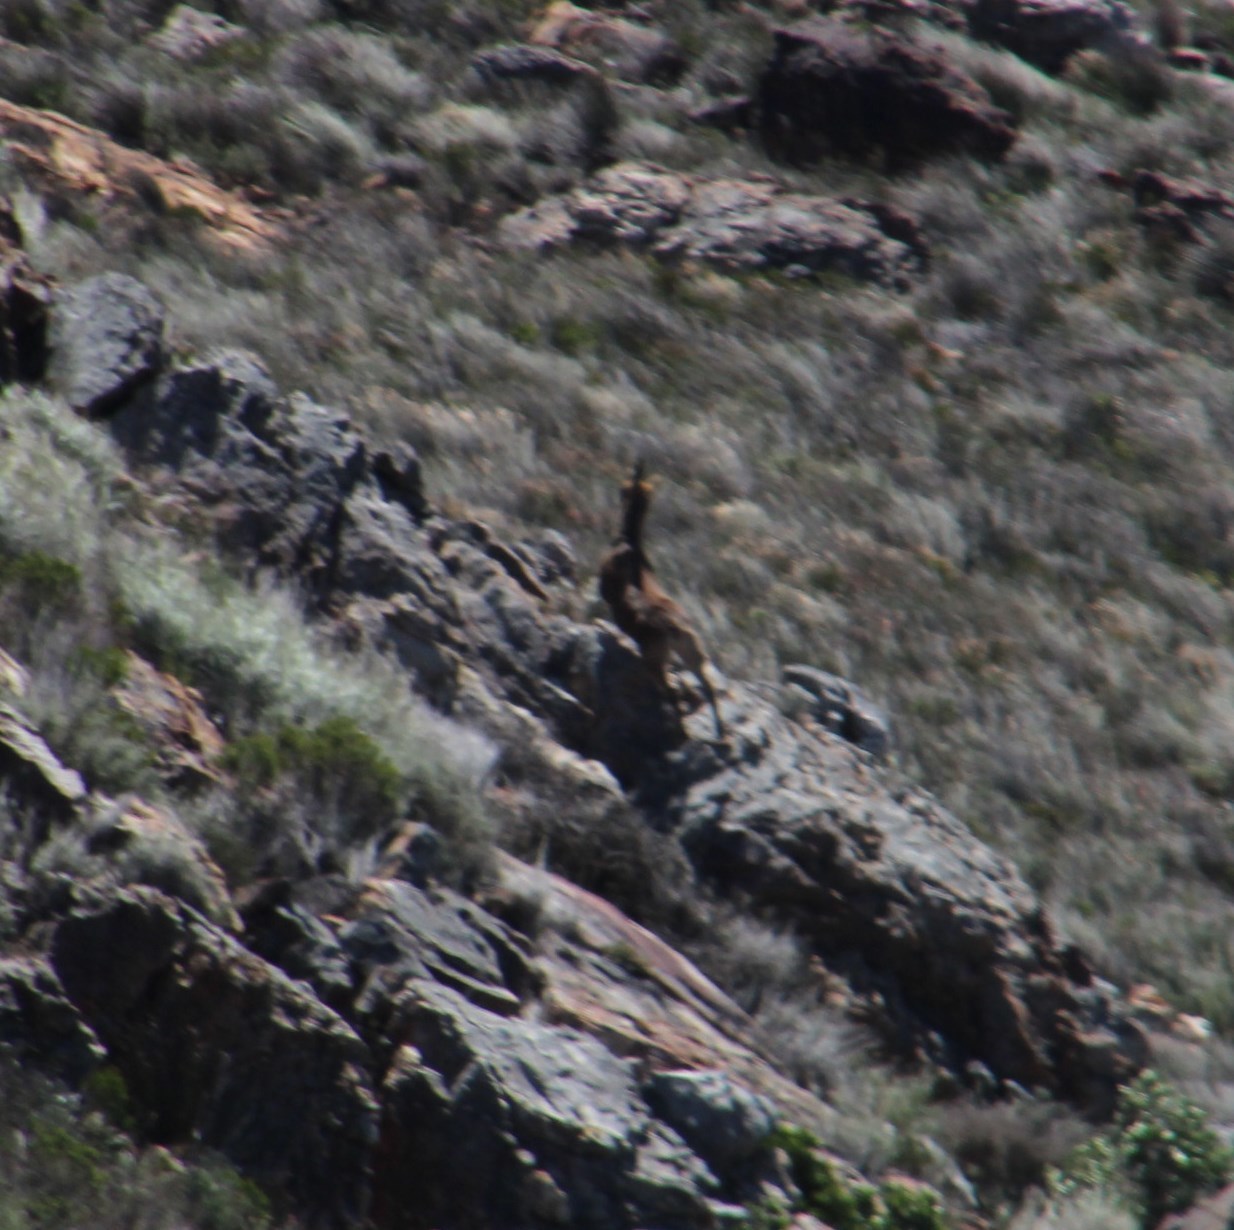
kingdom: Animalia
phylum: Chordata
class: Mammalia
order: Artiodactyla
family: Bovidae
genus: Oreotragus
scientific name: Oreotragus oreotragus
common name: Klipspringer
